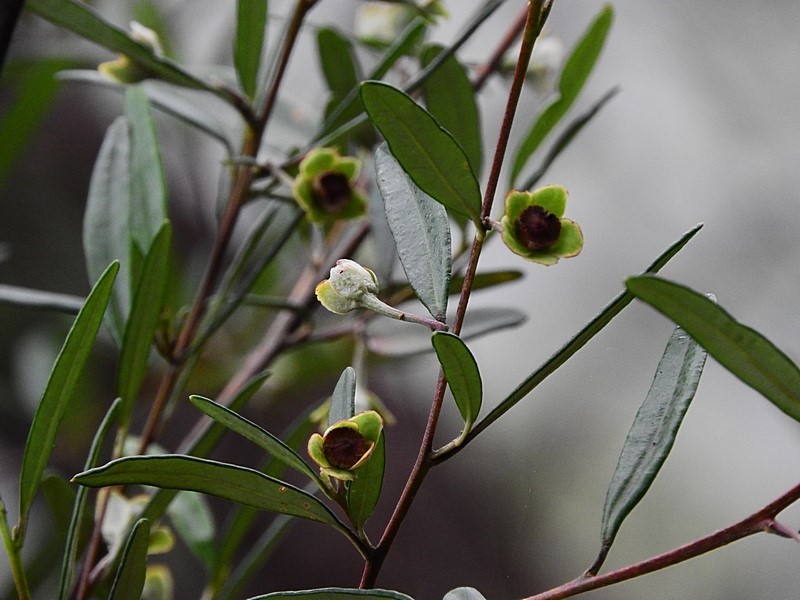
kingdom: Plantae
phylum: Tracheophyta
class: Magnoliopsida
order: Malpighiales
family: Euphorbiaceae
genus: Beyeria
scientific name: Beyeria lasiocarpa
